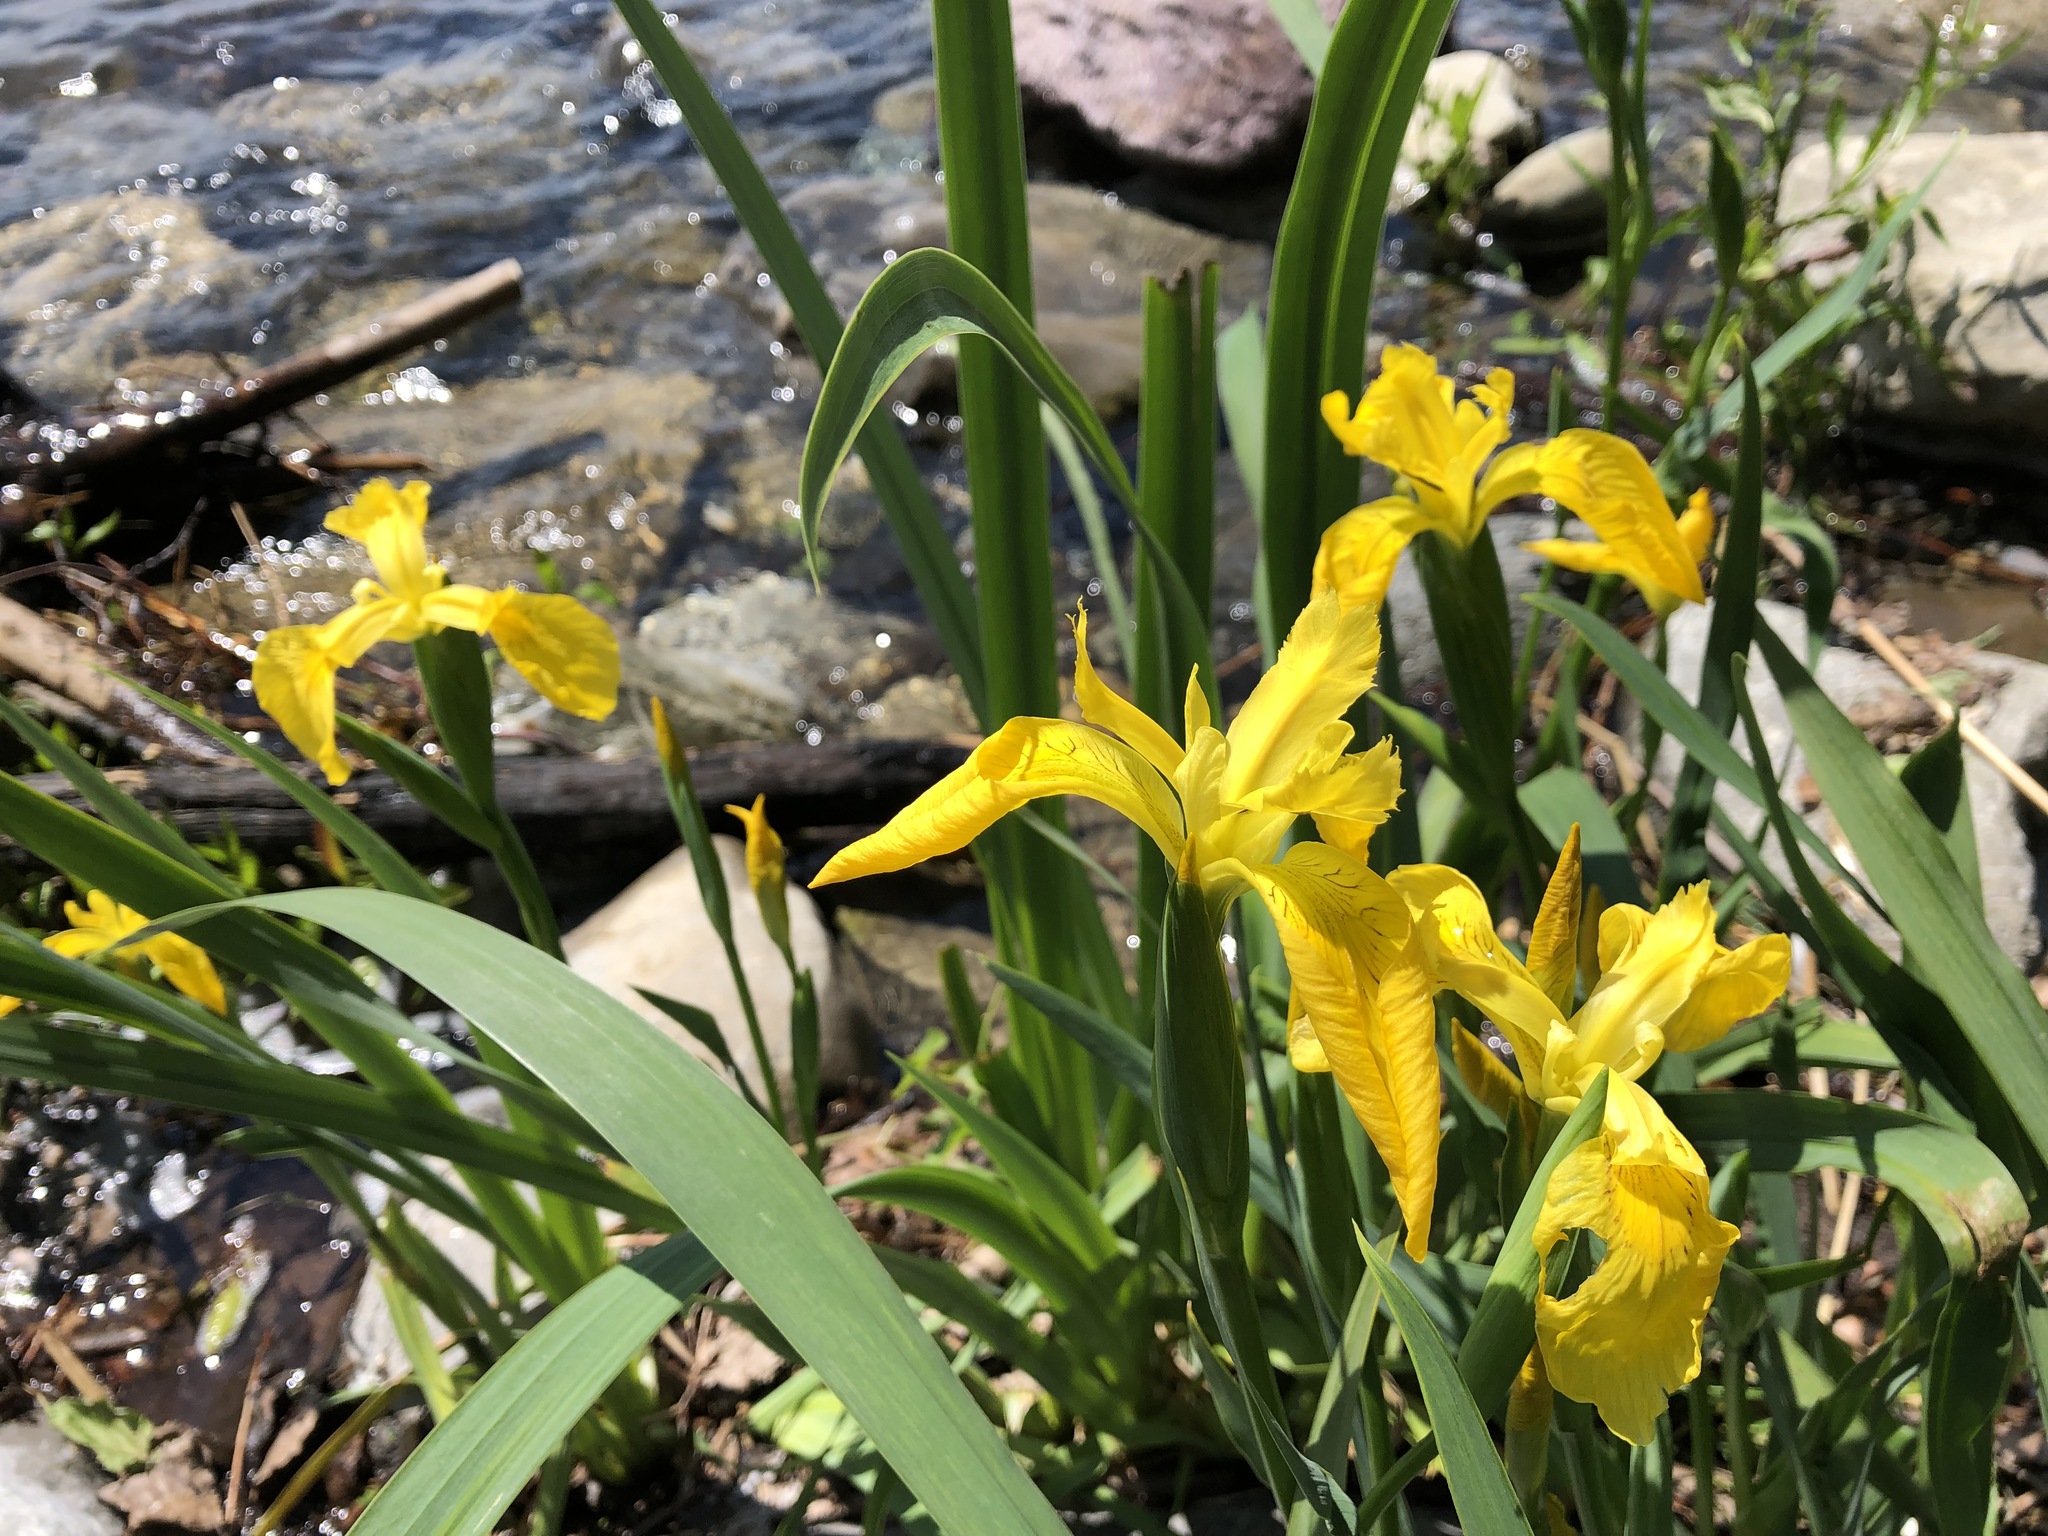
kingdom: Plantae
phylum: Tracheophyta
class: Liliopsida
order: Asparagales
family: Iridaceae
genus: Iris
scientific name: Iris pseudacorus
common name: Yellow flag
